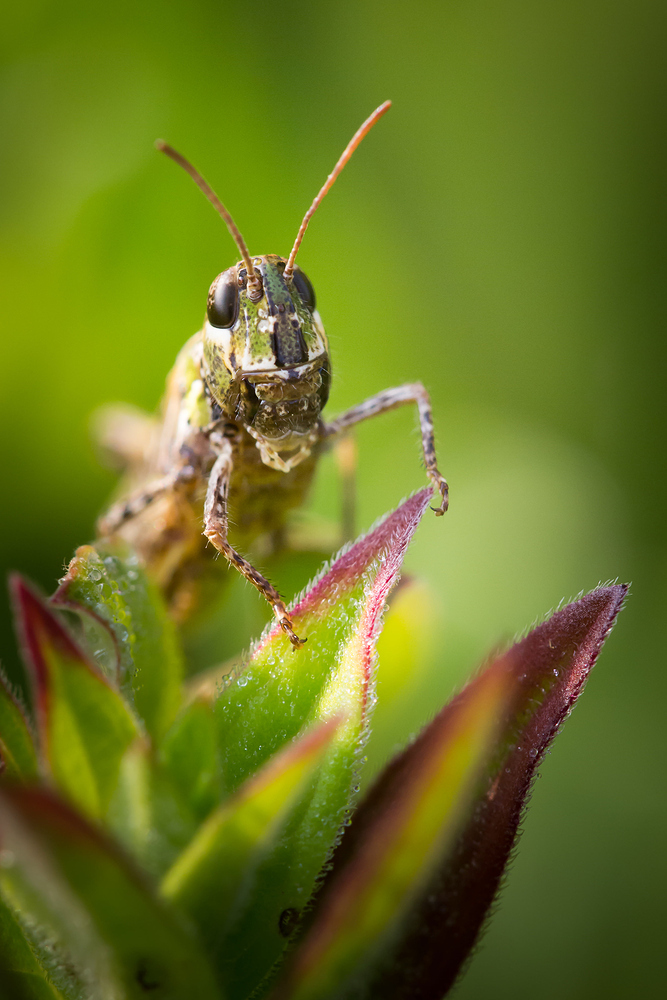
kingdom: Animalia
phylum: Arthropoda
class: Insecta
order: Orthoptera
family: Acrididae
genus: Myrmeleotettix
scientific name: Myrmeleotettix maculatus
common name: Mottled grasshopper
